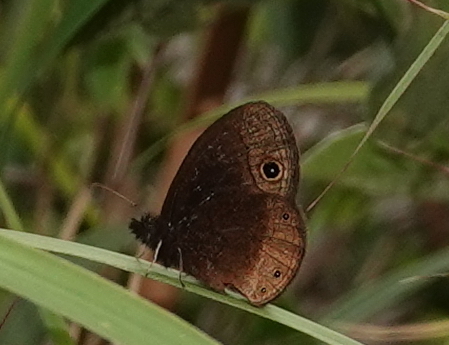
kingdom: Animalia
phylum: Arthropoda
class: Insecta
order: Lepidoptera
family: Nymphalidae
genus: Manerebia
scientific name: Manerebia nevadensis
